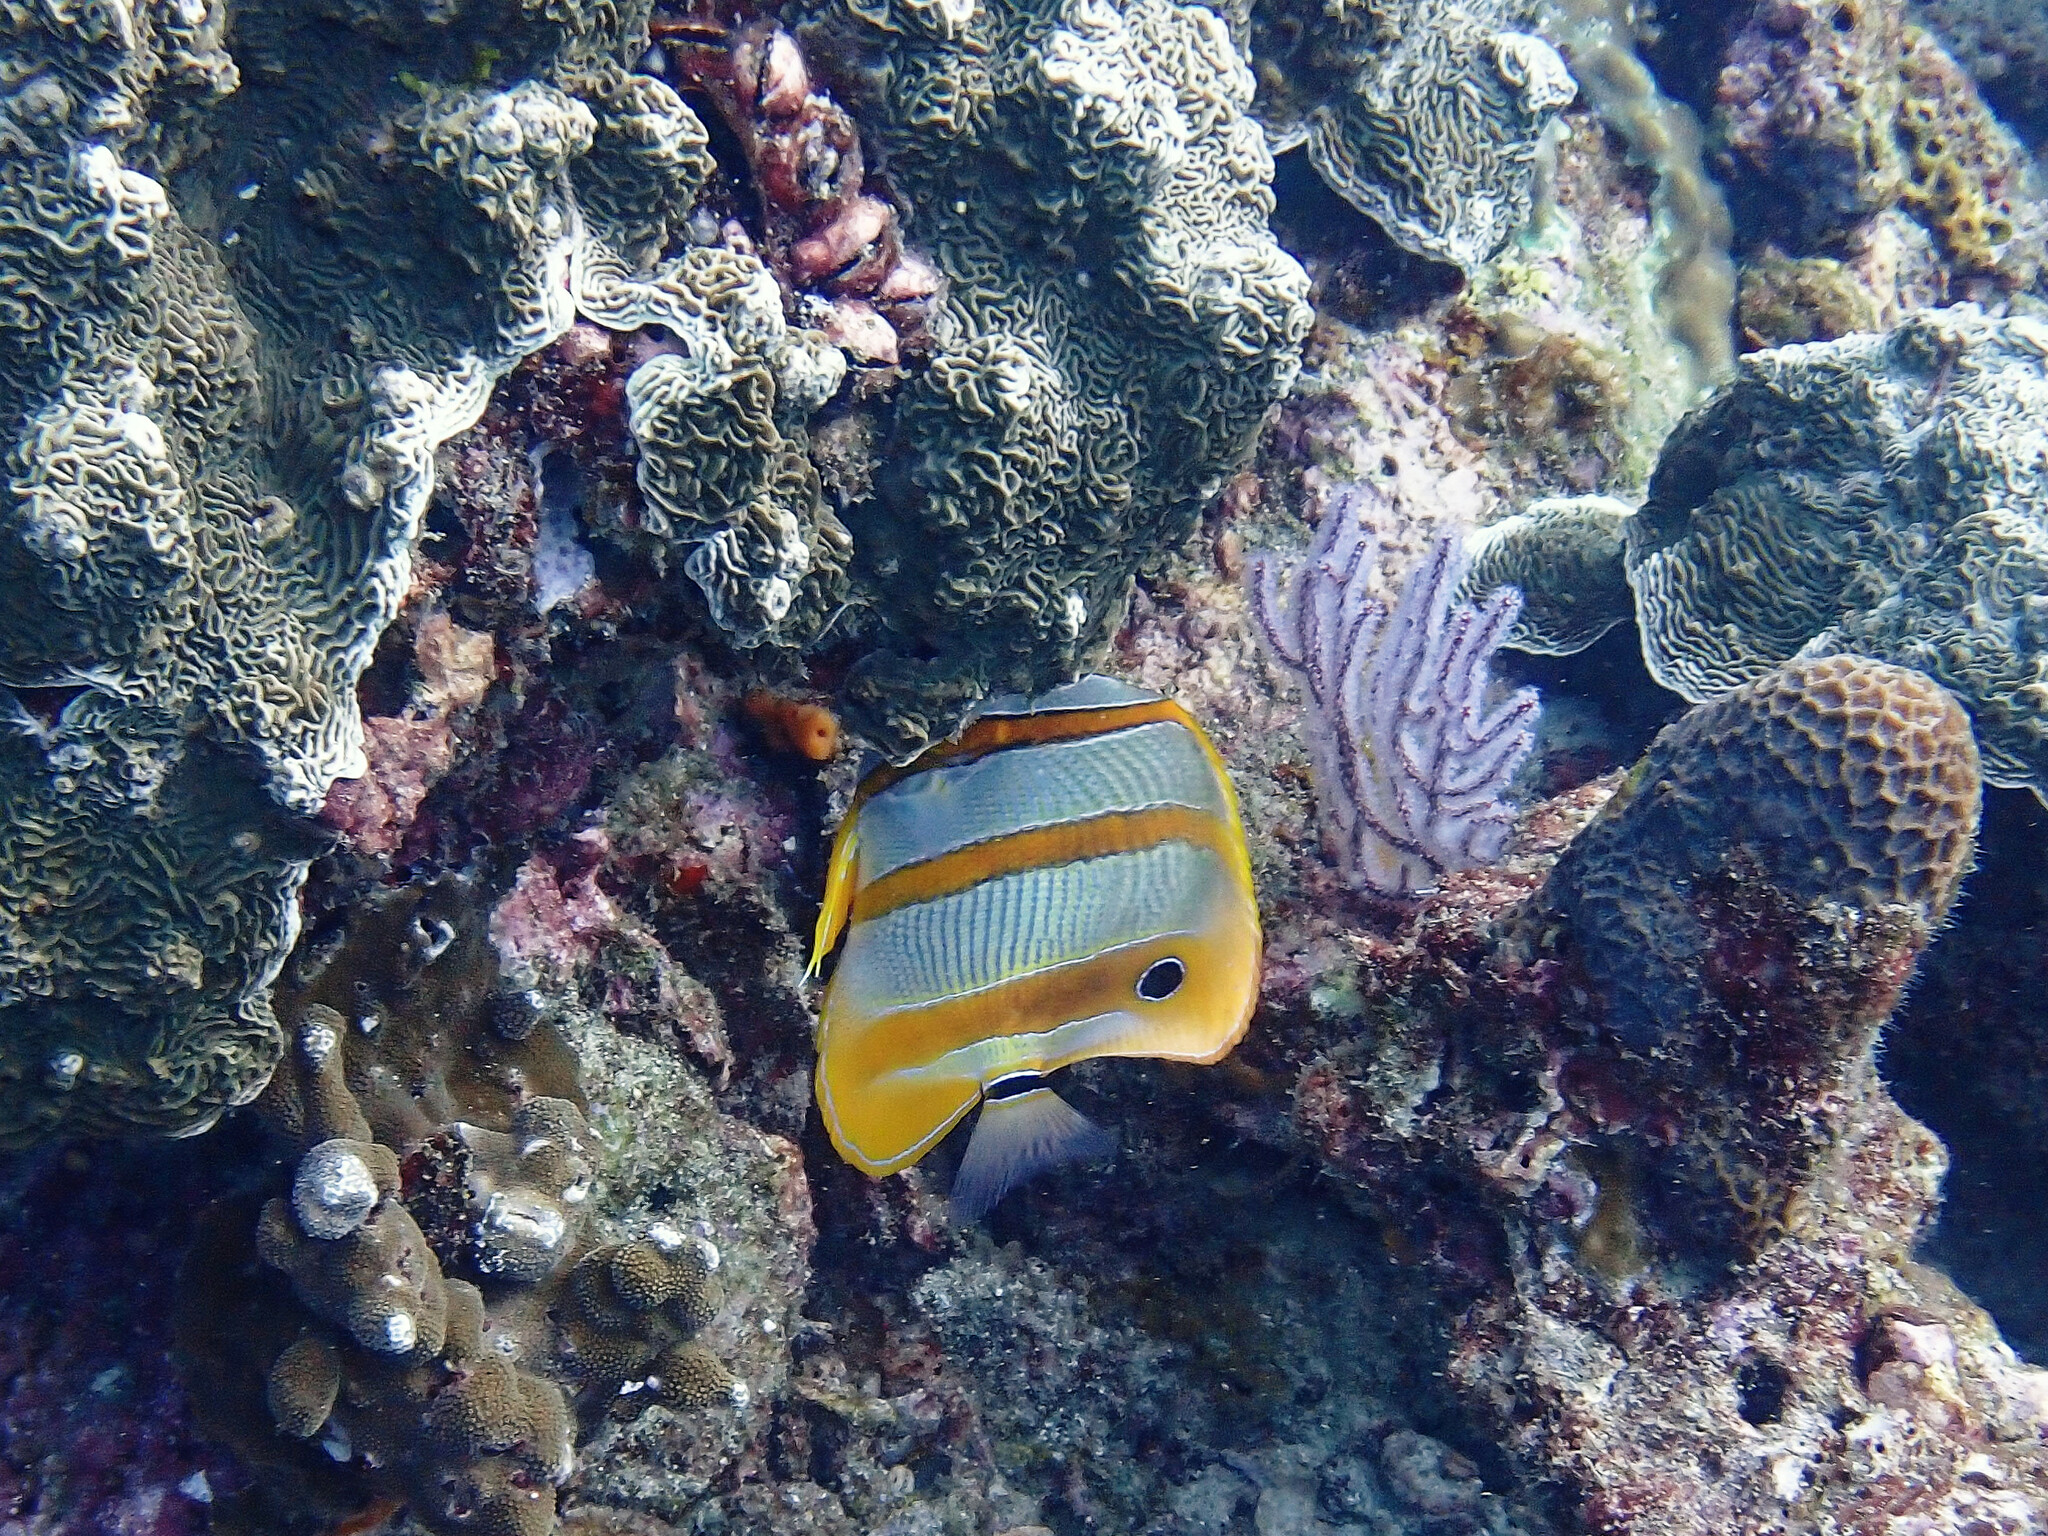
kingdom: Animalia
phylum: Chordata
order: Perciformes
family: Chaetodontidae
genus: Chelmon
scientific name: Chelmon rostratus
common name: Beaked butterflyfish
